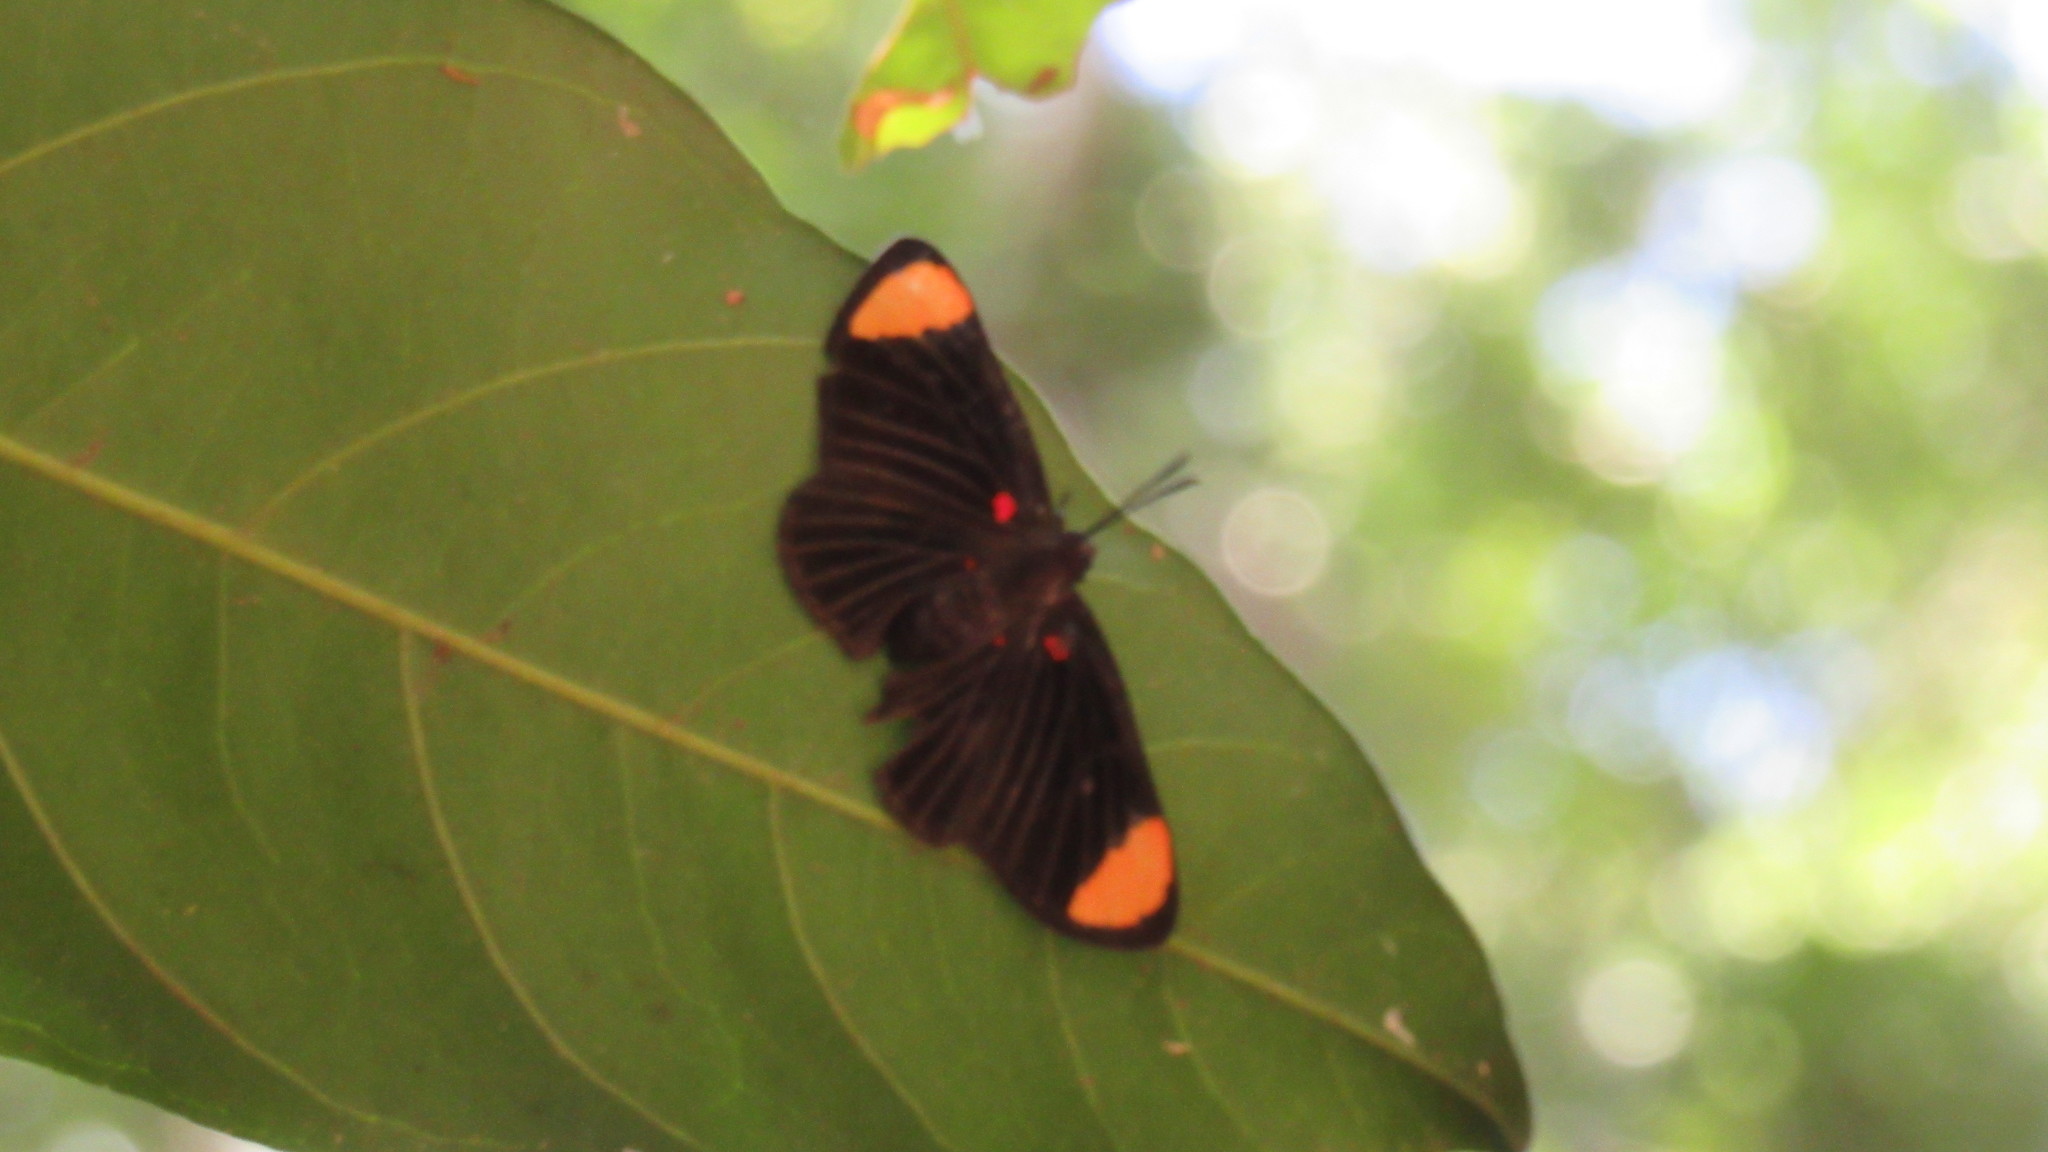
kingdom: Animalia
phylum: Arthropoda
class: Insecta
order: Lepidoptera
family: Lycaenidae
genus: Melanis
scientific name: Melanis
